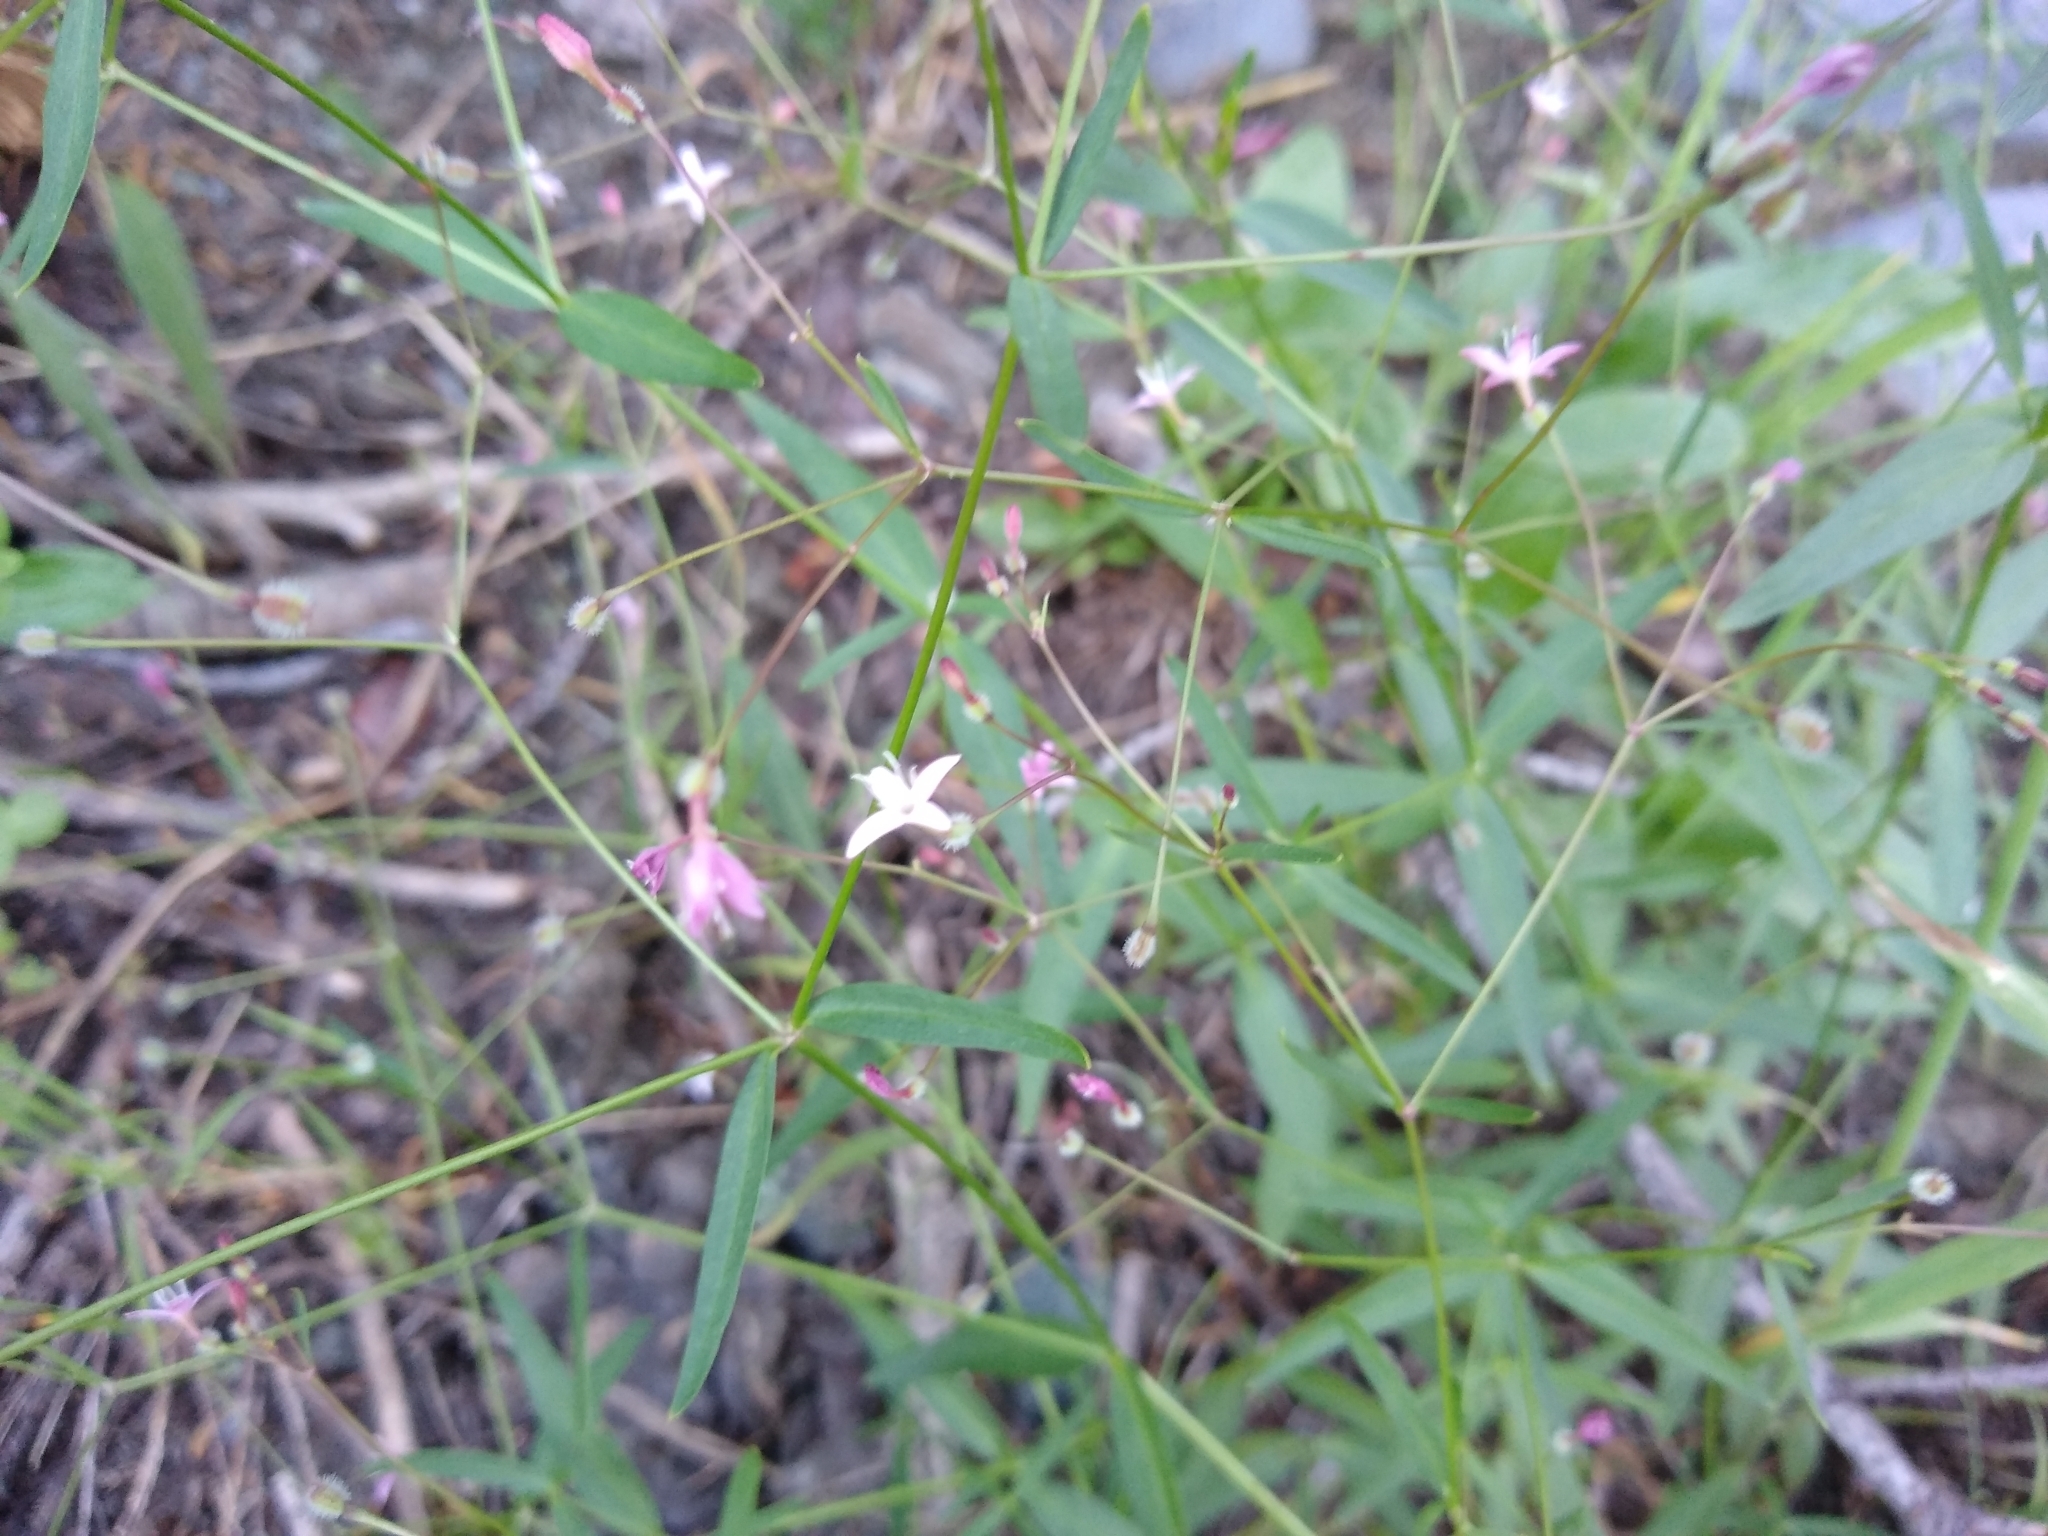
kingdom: Plantae
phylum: Tracheophyta
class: Magnoliopsida
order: Gentianales
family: Rubiaceae
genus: Kelloggia
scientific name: Kelloggia galioides
